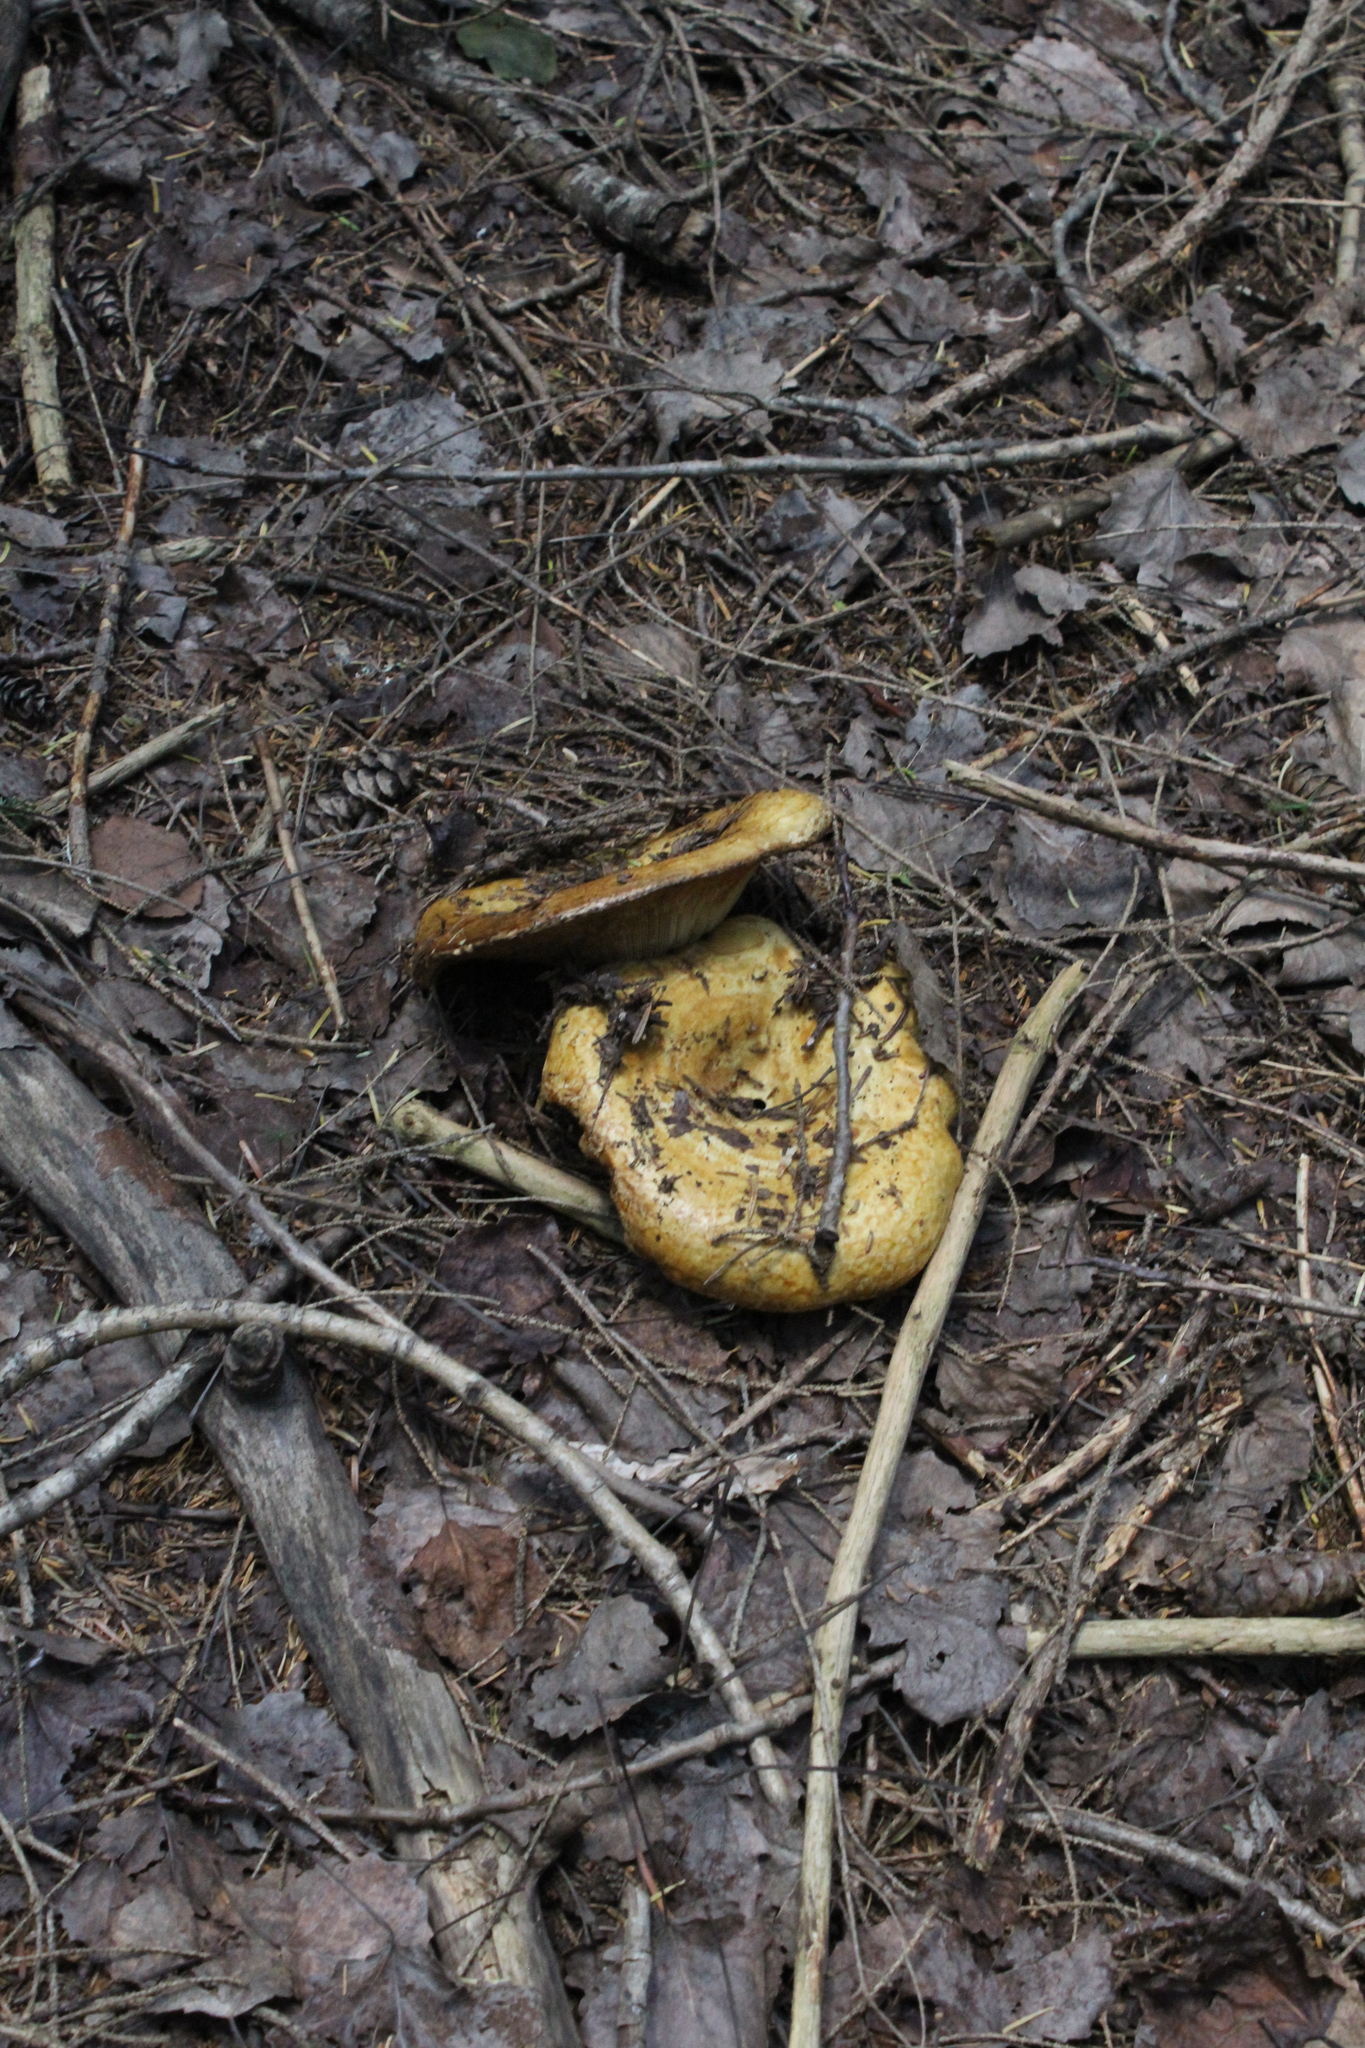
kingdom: Fungi
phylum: Basidiomycota
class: Agaricomycetes
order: Russulales
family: Russulaceae
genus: Lactarius
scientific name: Lactarius scrobiculatus
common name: Spotted milkcap
